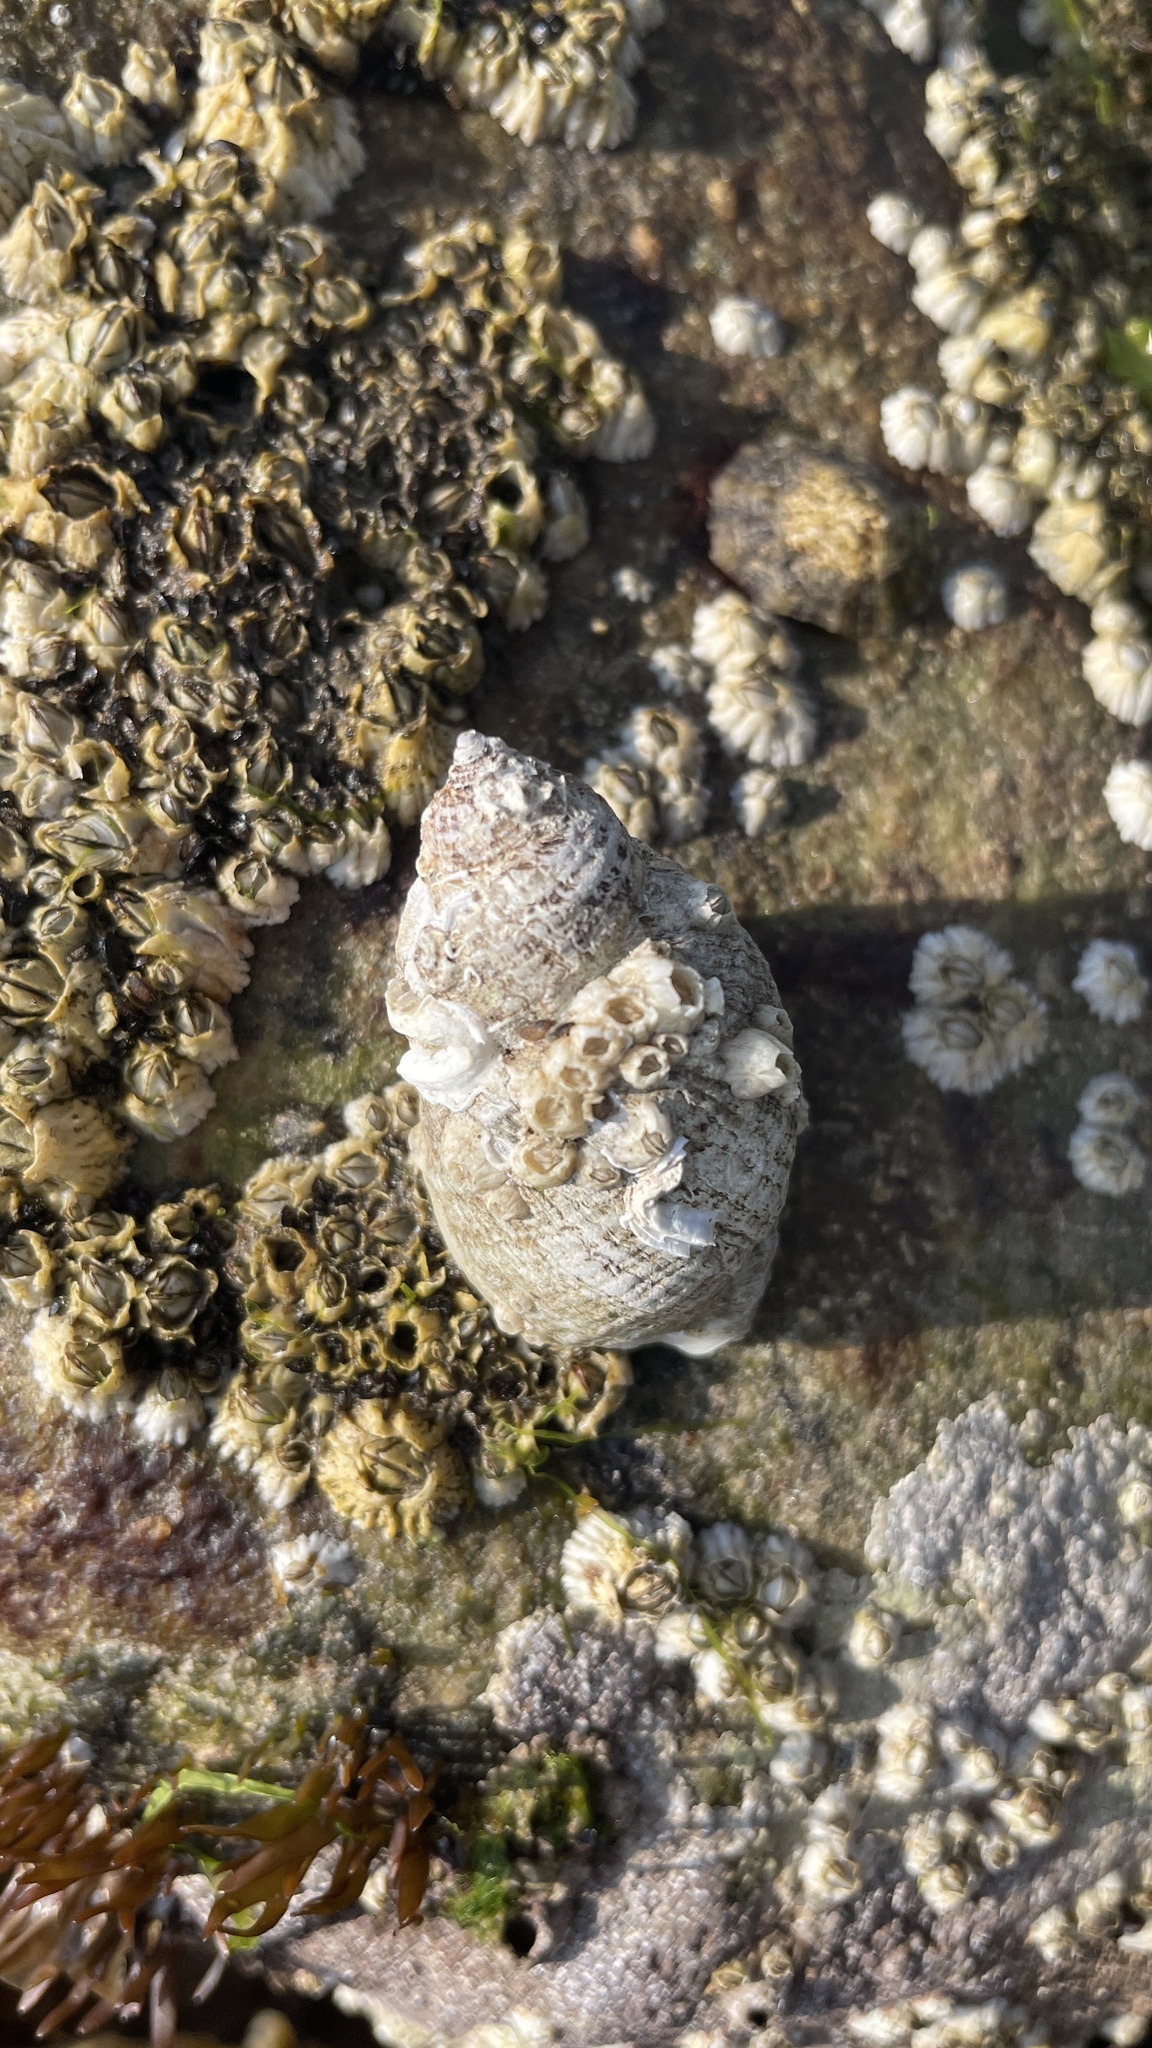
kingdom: Animalia
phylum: Mollusca
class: Gastropoda
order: Neogastropoda
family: Muricidae
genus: Nucella
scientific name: Nucella lapillus
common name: Dog whelk
